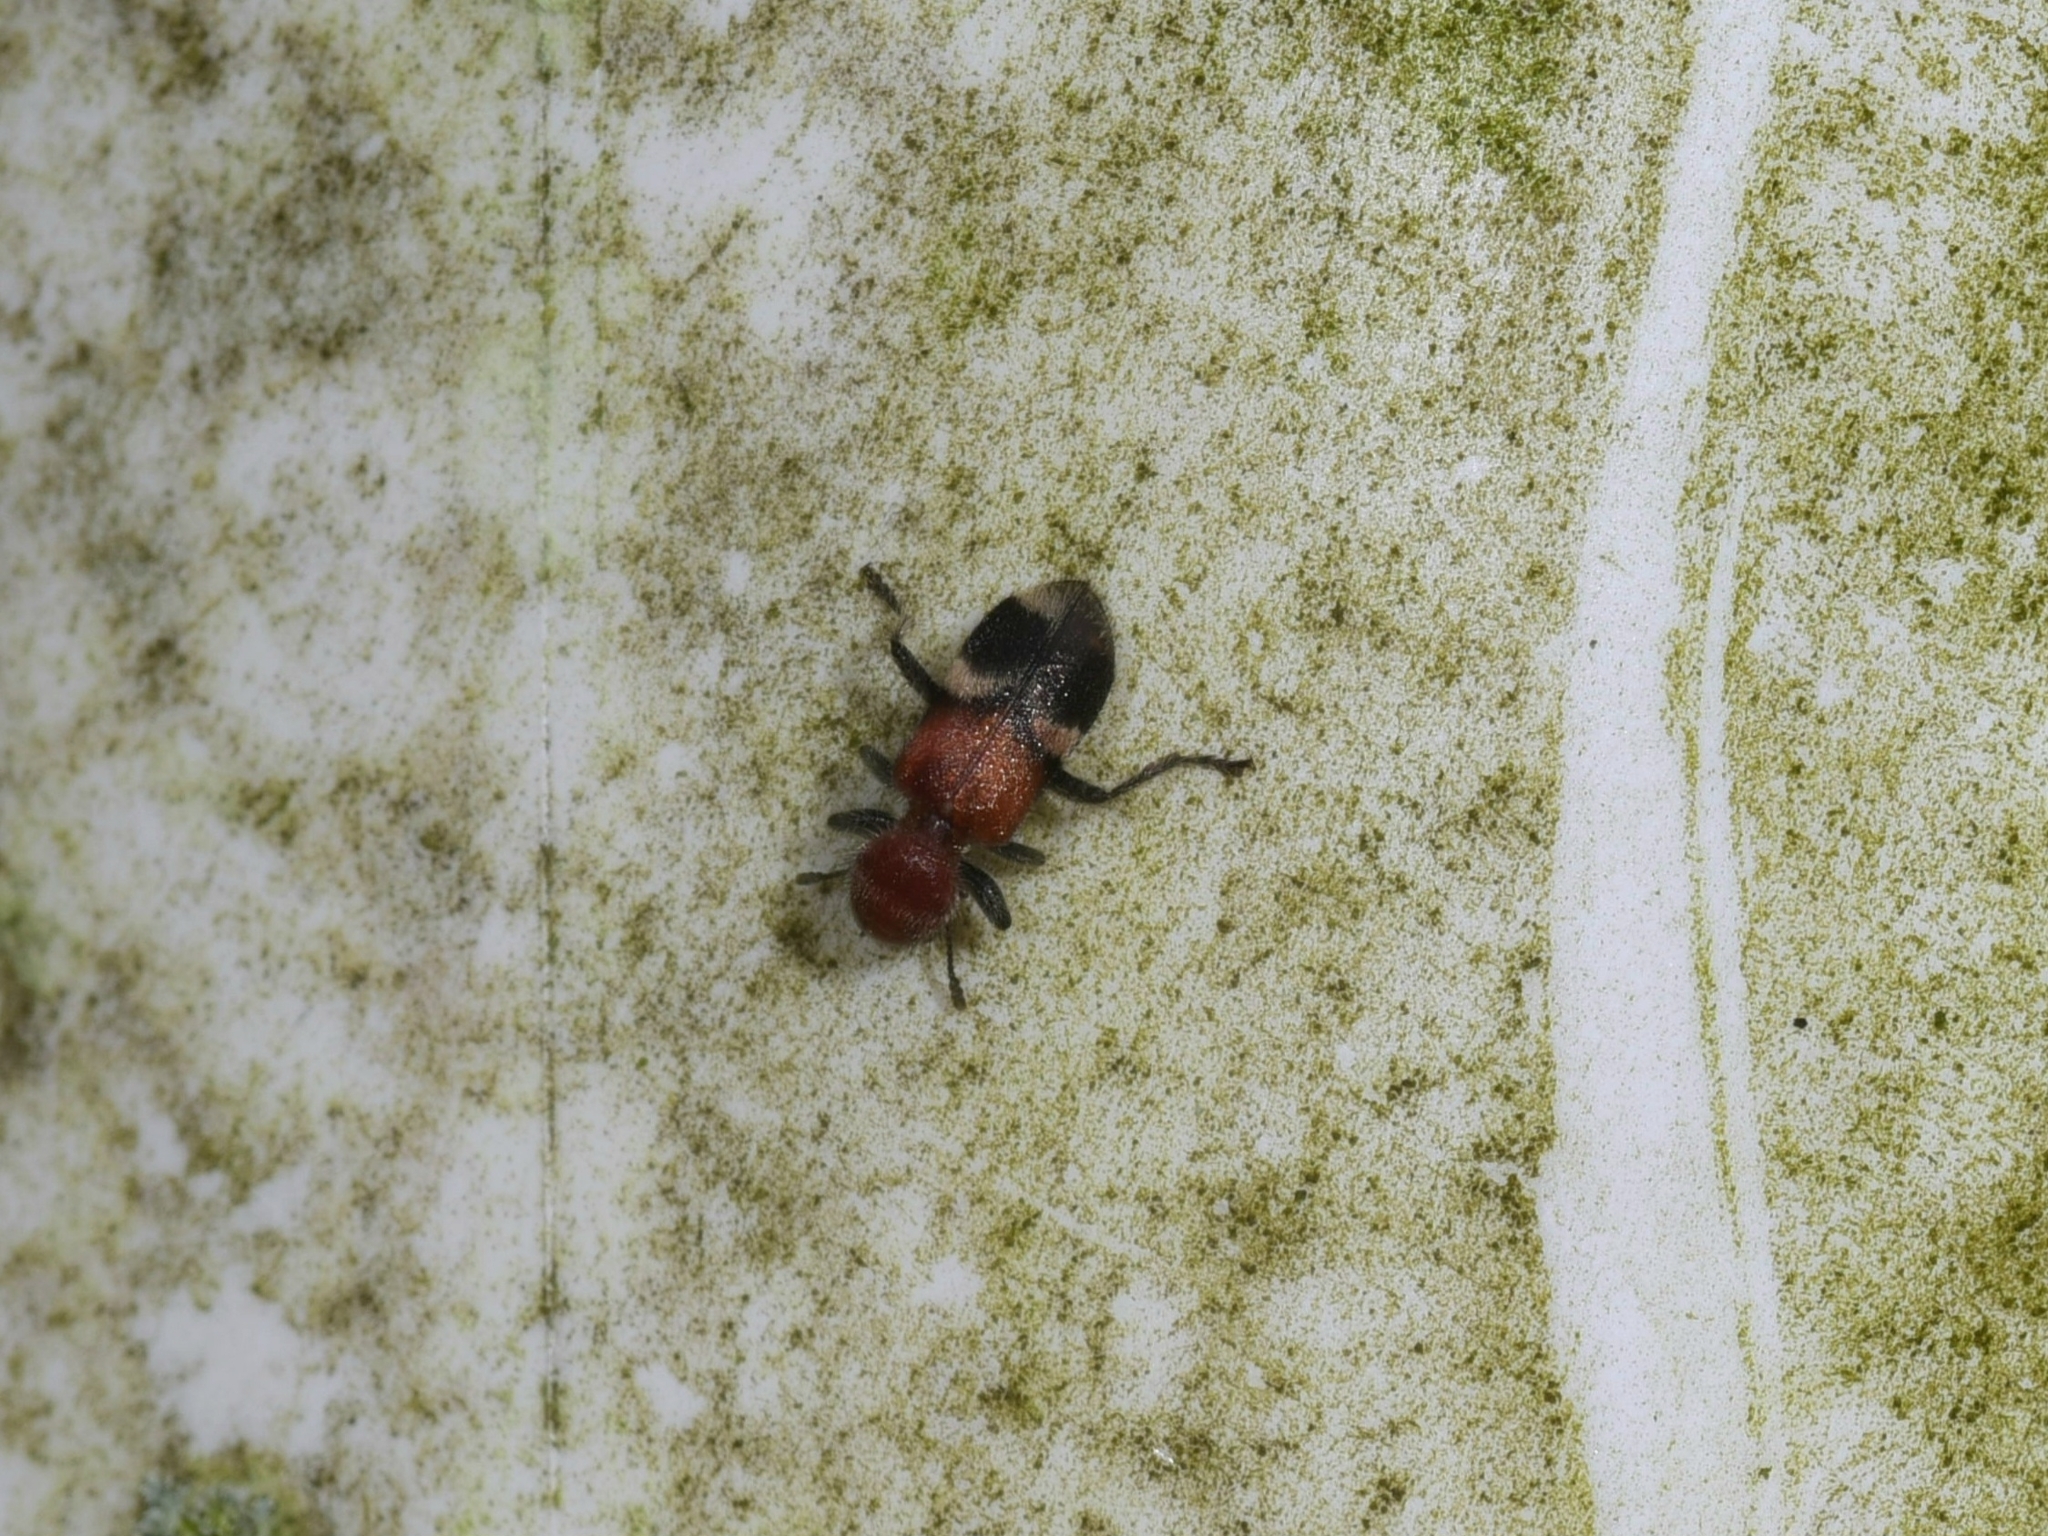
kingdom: Animalia
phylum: Arthropoda
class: Insecta
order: Coleoptera
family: Cleridae
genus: Enoclerus
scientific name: Enoclerus nigripes
